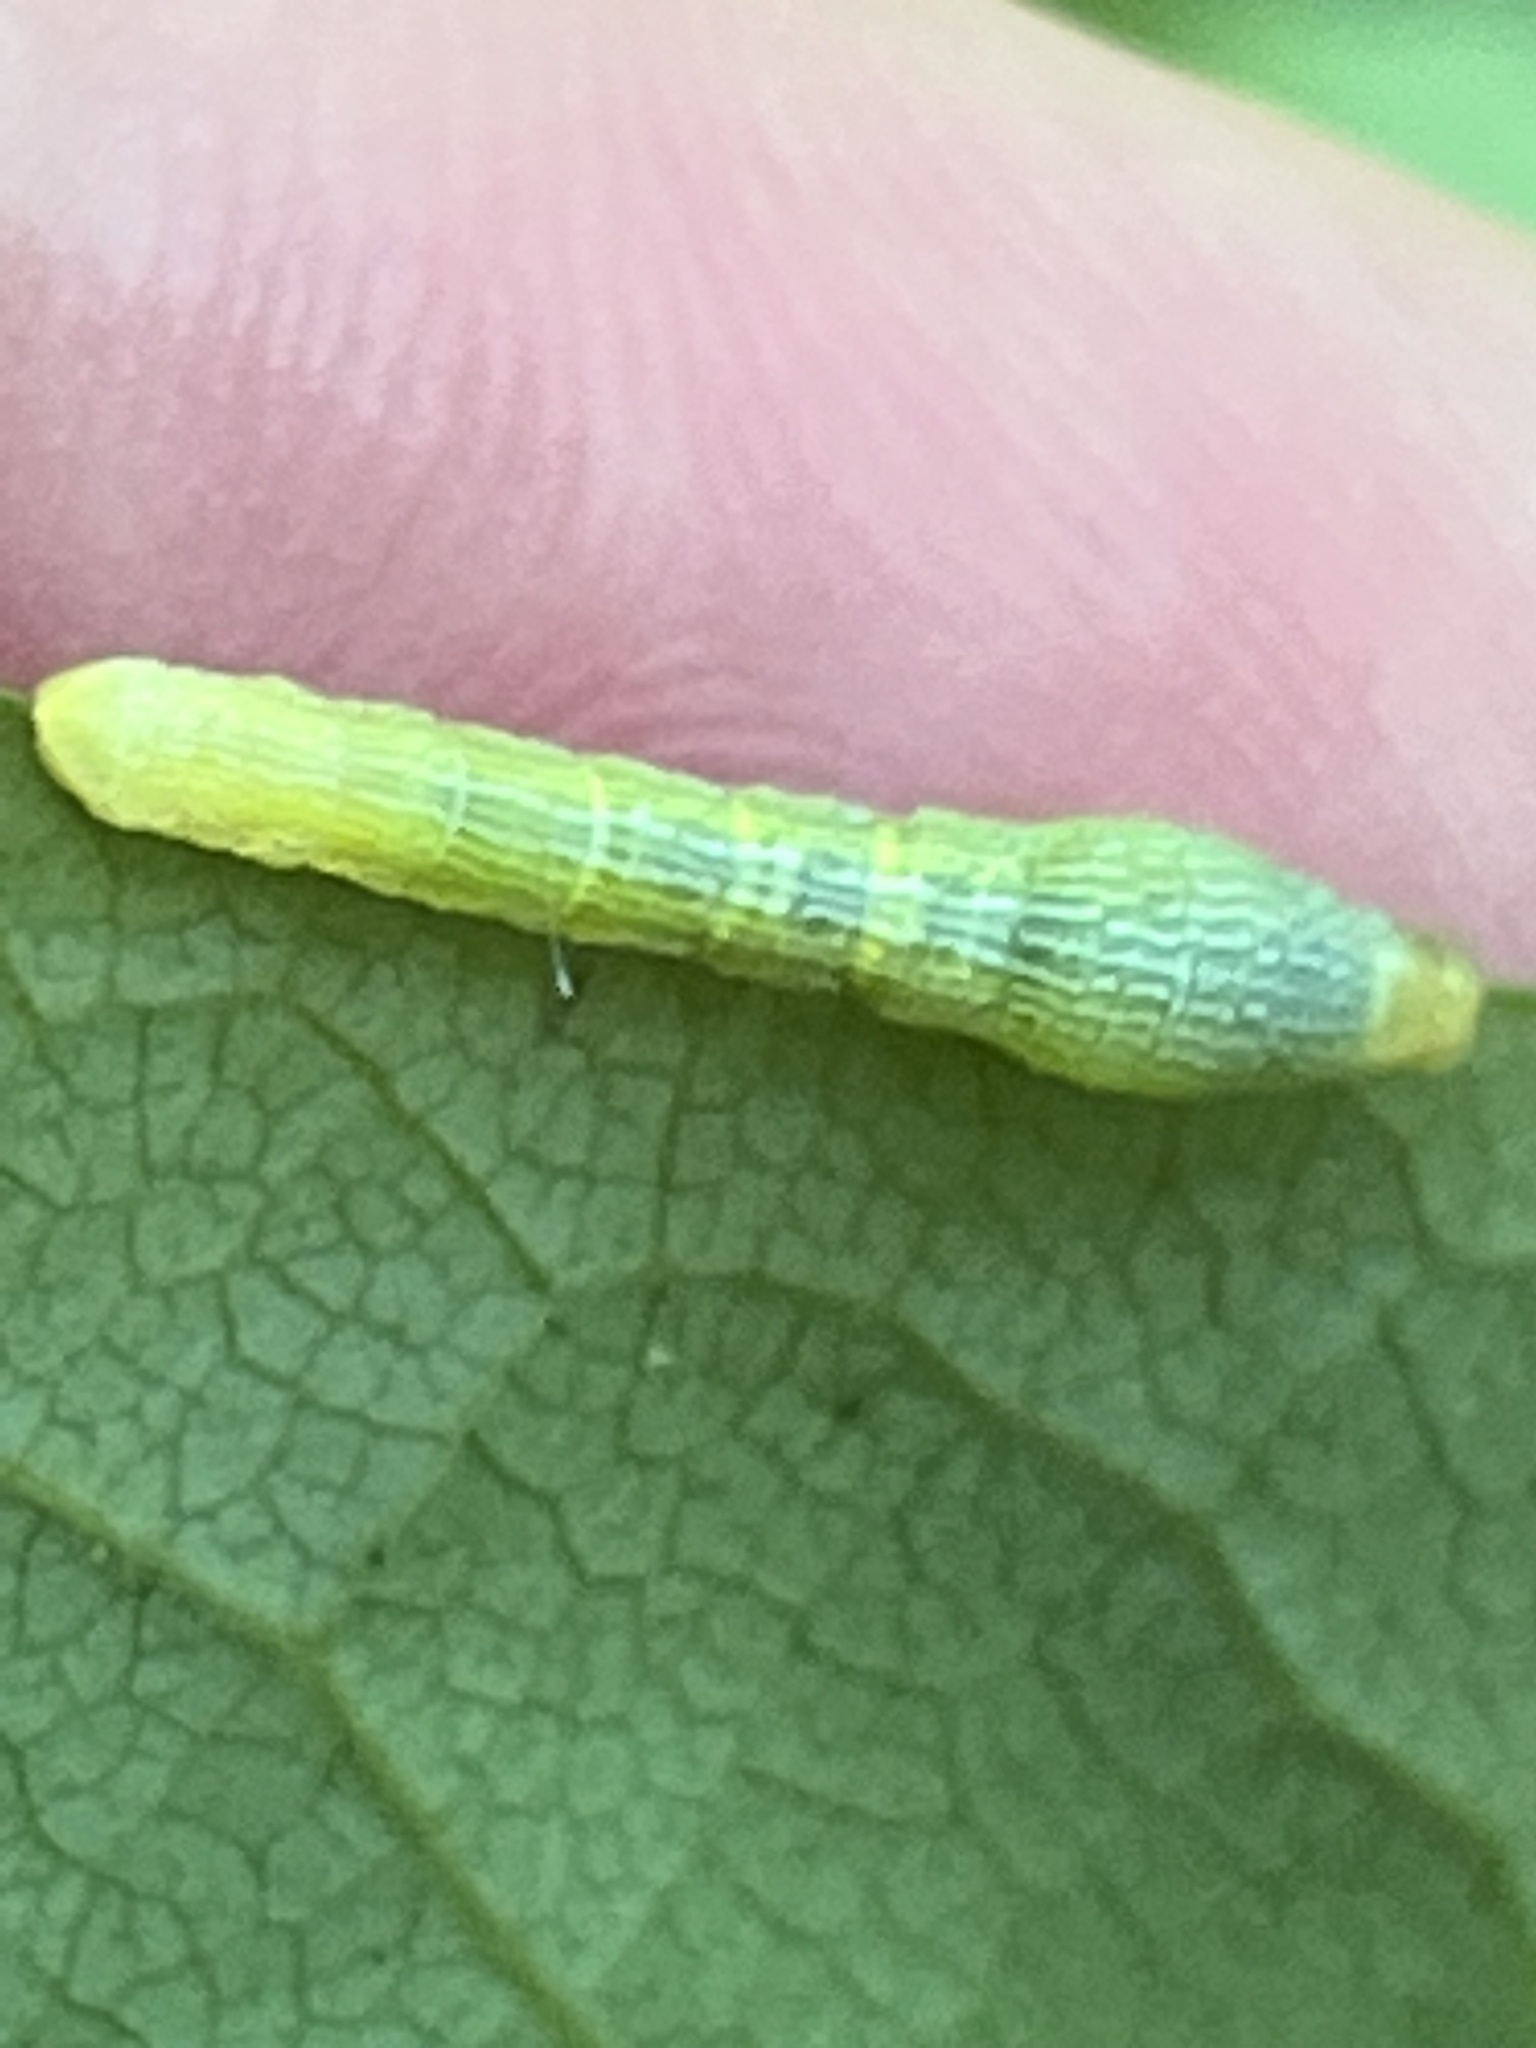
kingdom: Animalia
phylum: Arthropoda
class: Insecta
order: Lepidoptera
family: Geometridae
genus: Epimecis
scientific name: Epimecis hortaria
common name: Tulip-tree beauty
